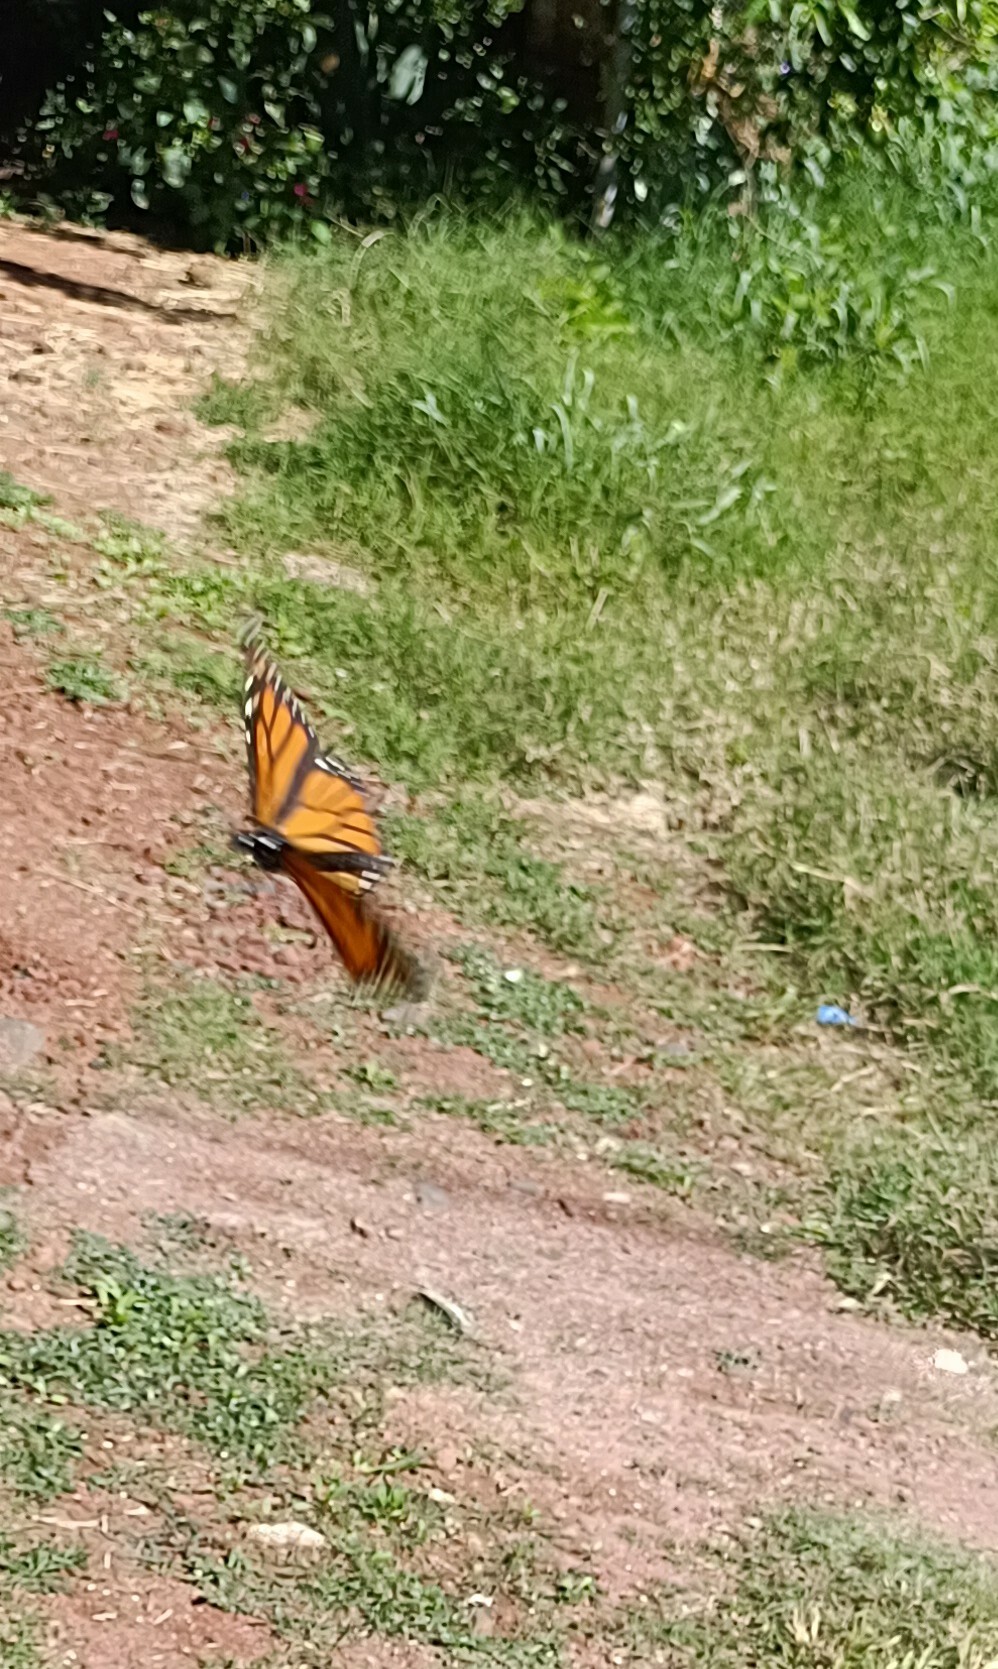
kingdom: Animalia
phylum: Arthropoda
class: Insecta
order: Lepidoptera
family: Nymphalidae
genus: Danaus
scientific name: Danaus plexippus
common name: Monarch
